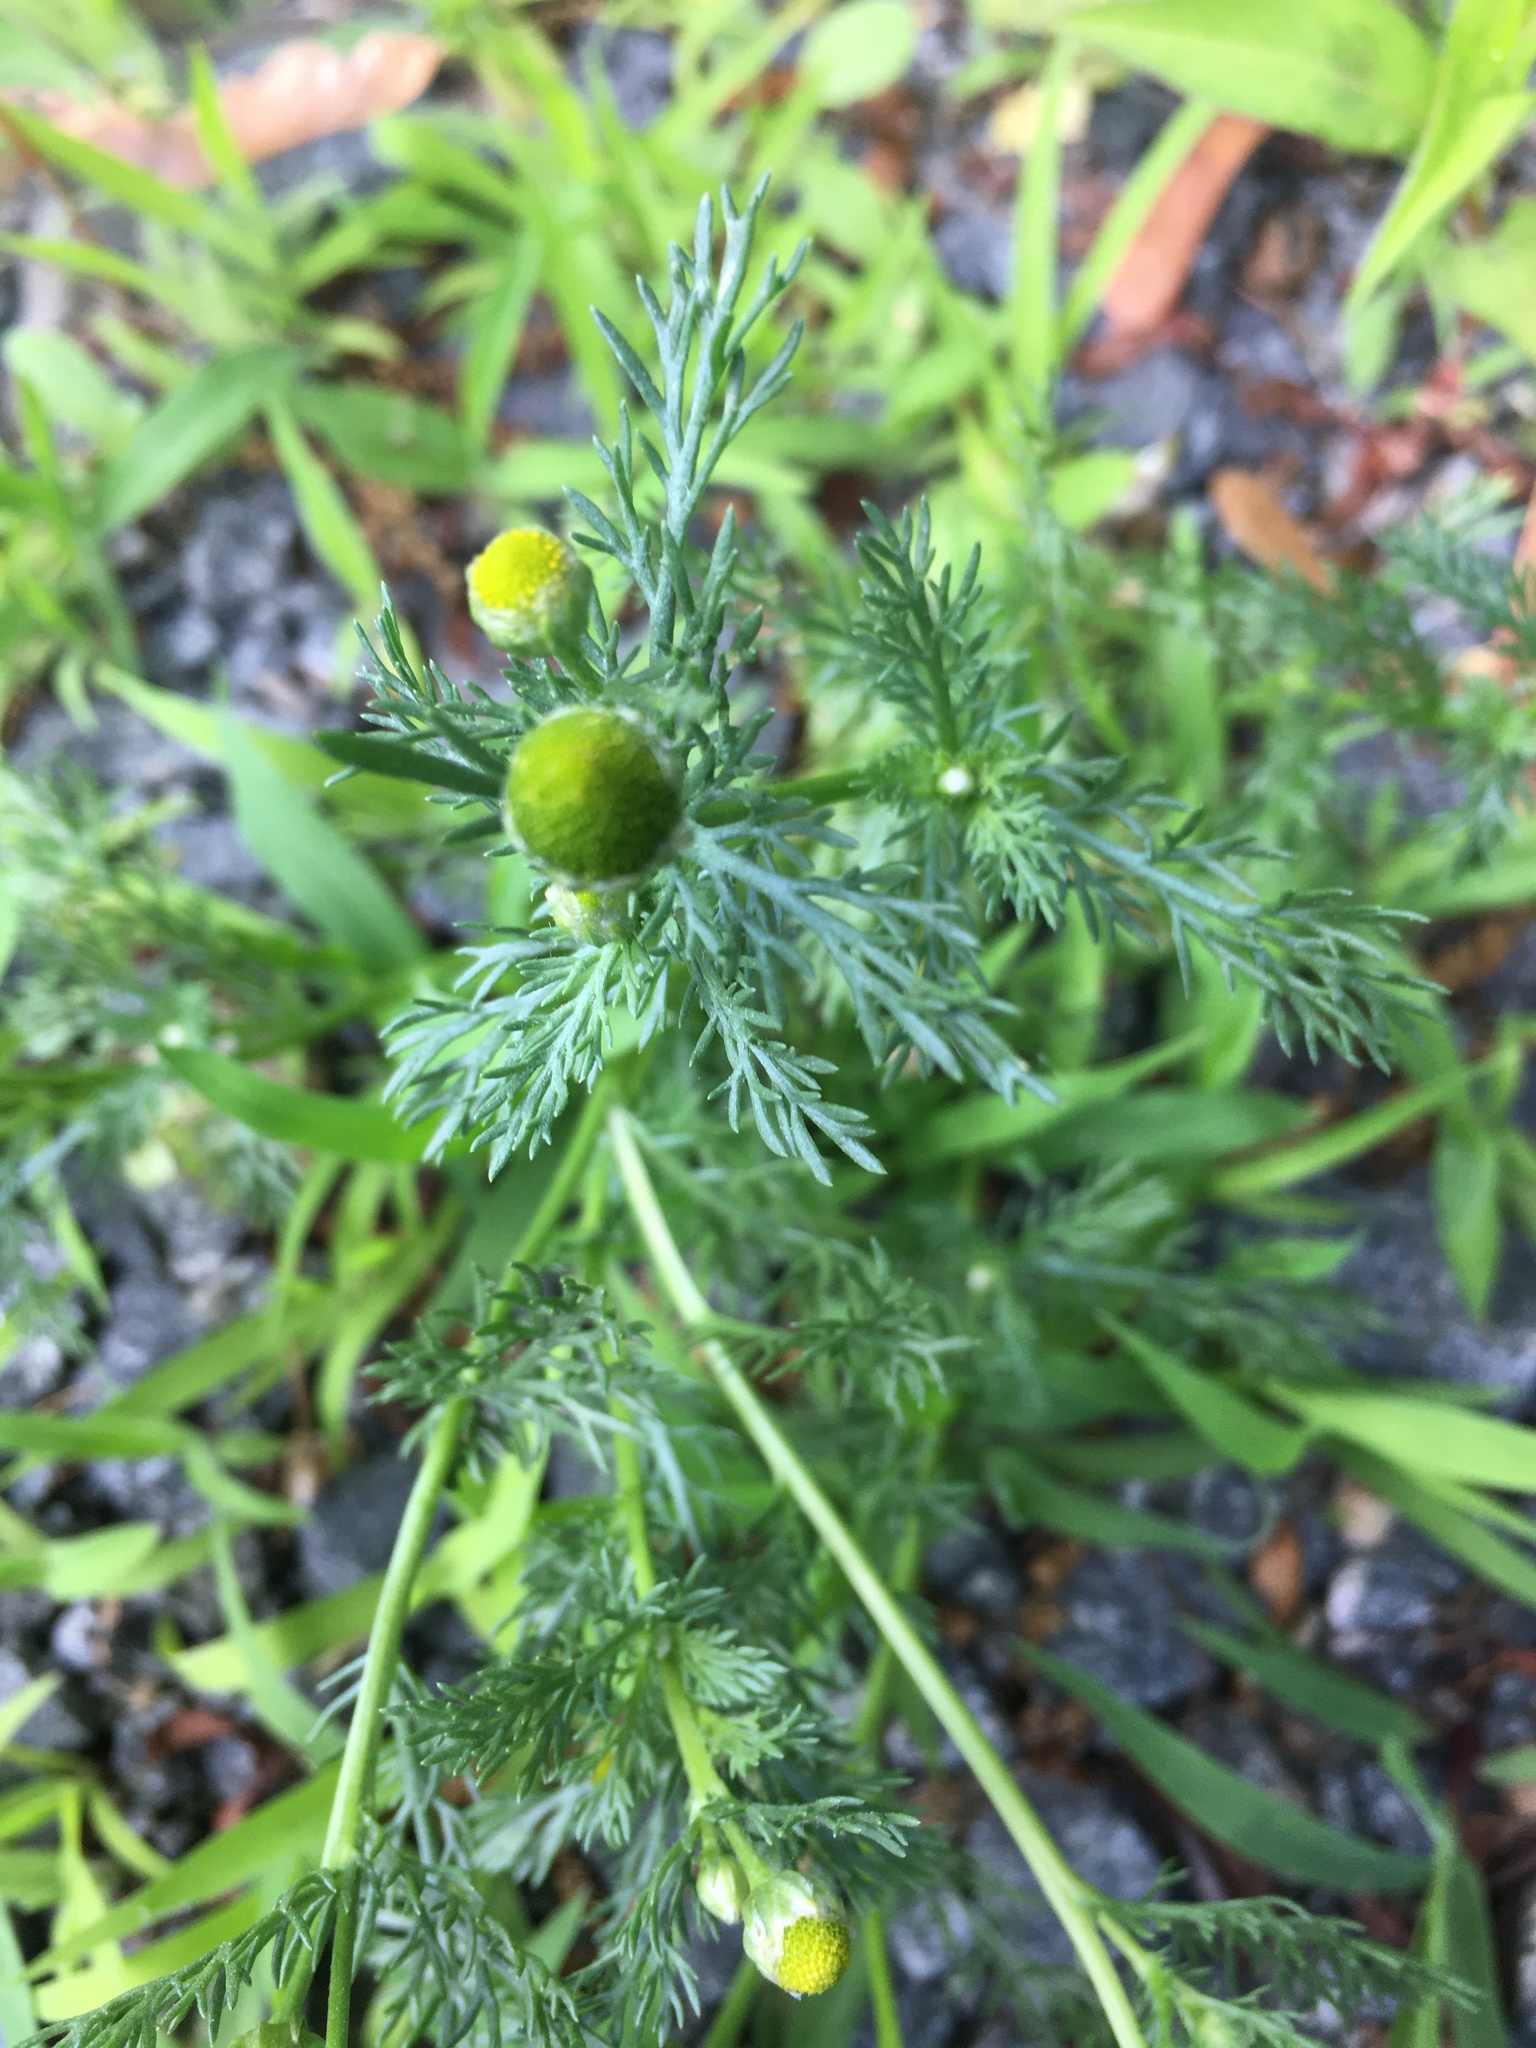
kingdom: Plantae
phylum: Tracheophyta
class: Magnoliopsida
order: Asterales
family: Asteraceae
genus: Matricaria
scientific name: Matricaria discoidea
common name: Disc mayweed
